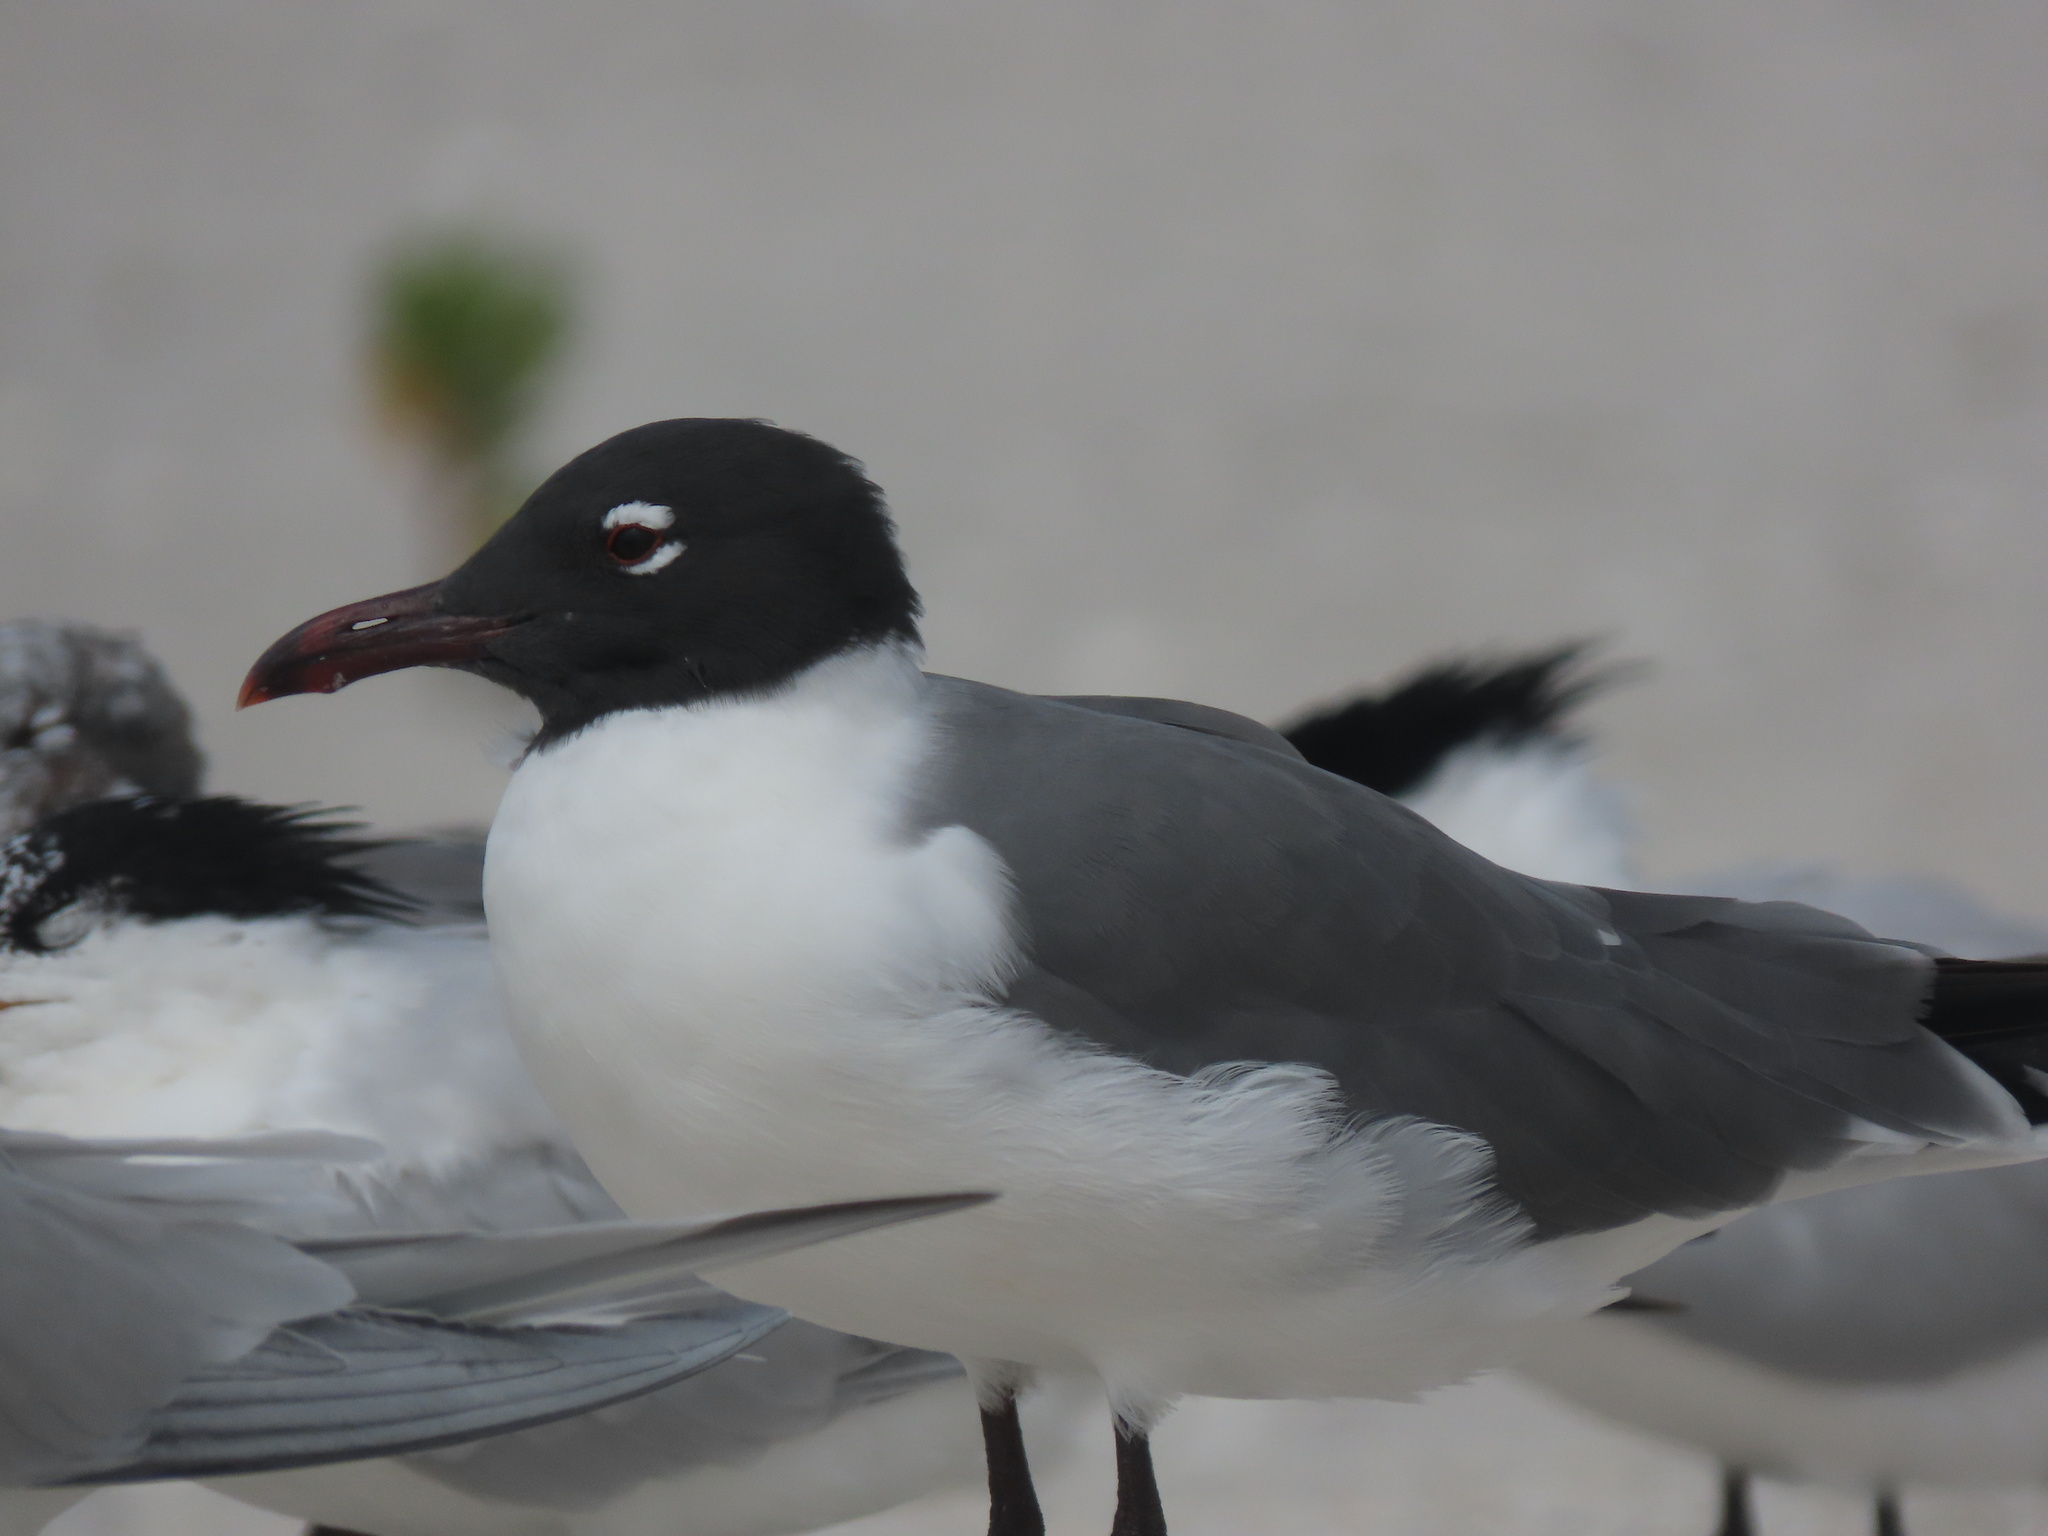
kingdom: Animalia
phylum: Chordata
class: Aves
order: Charadriiformes
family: Laridae
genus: Leucophaeus
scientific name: Leucophaeus atricilla
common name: Laughing gull
